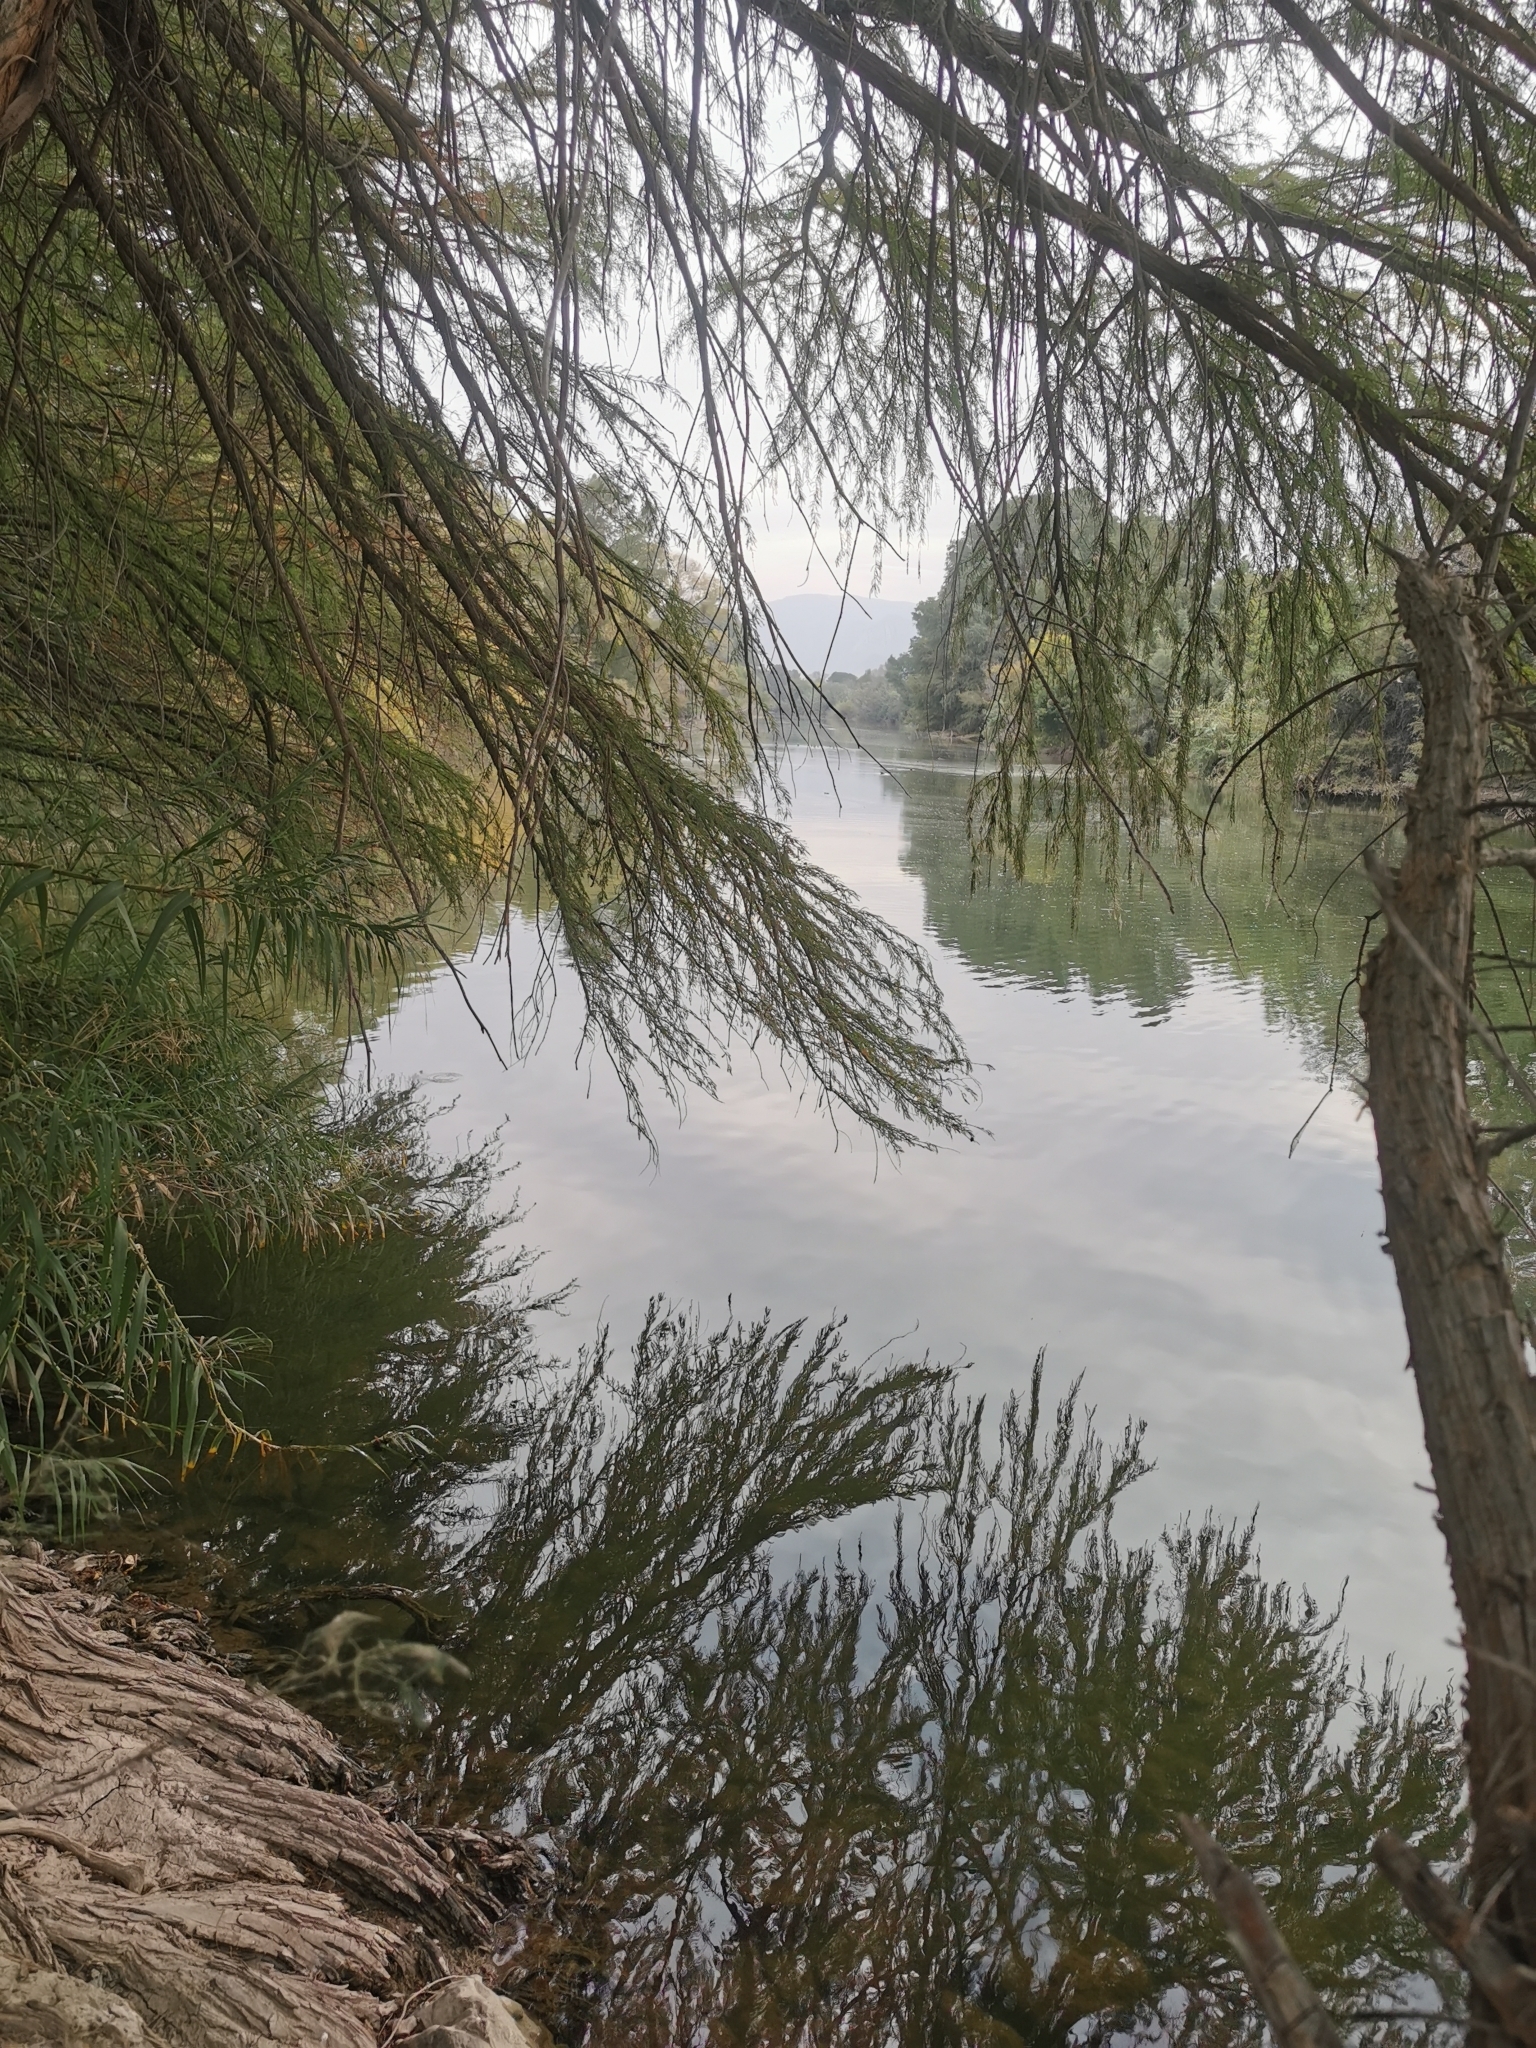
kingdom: Plantae
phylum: Tracheophyta
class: Pinopsida
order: Pinales
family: Cupressaceae
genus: Taxodium
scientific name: Taxodium mucronatum
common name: Montezume bald cypress
